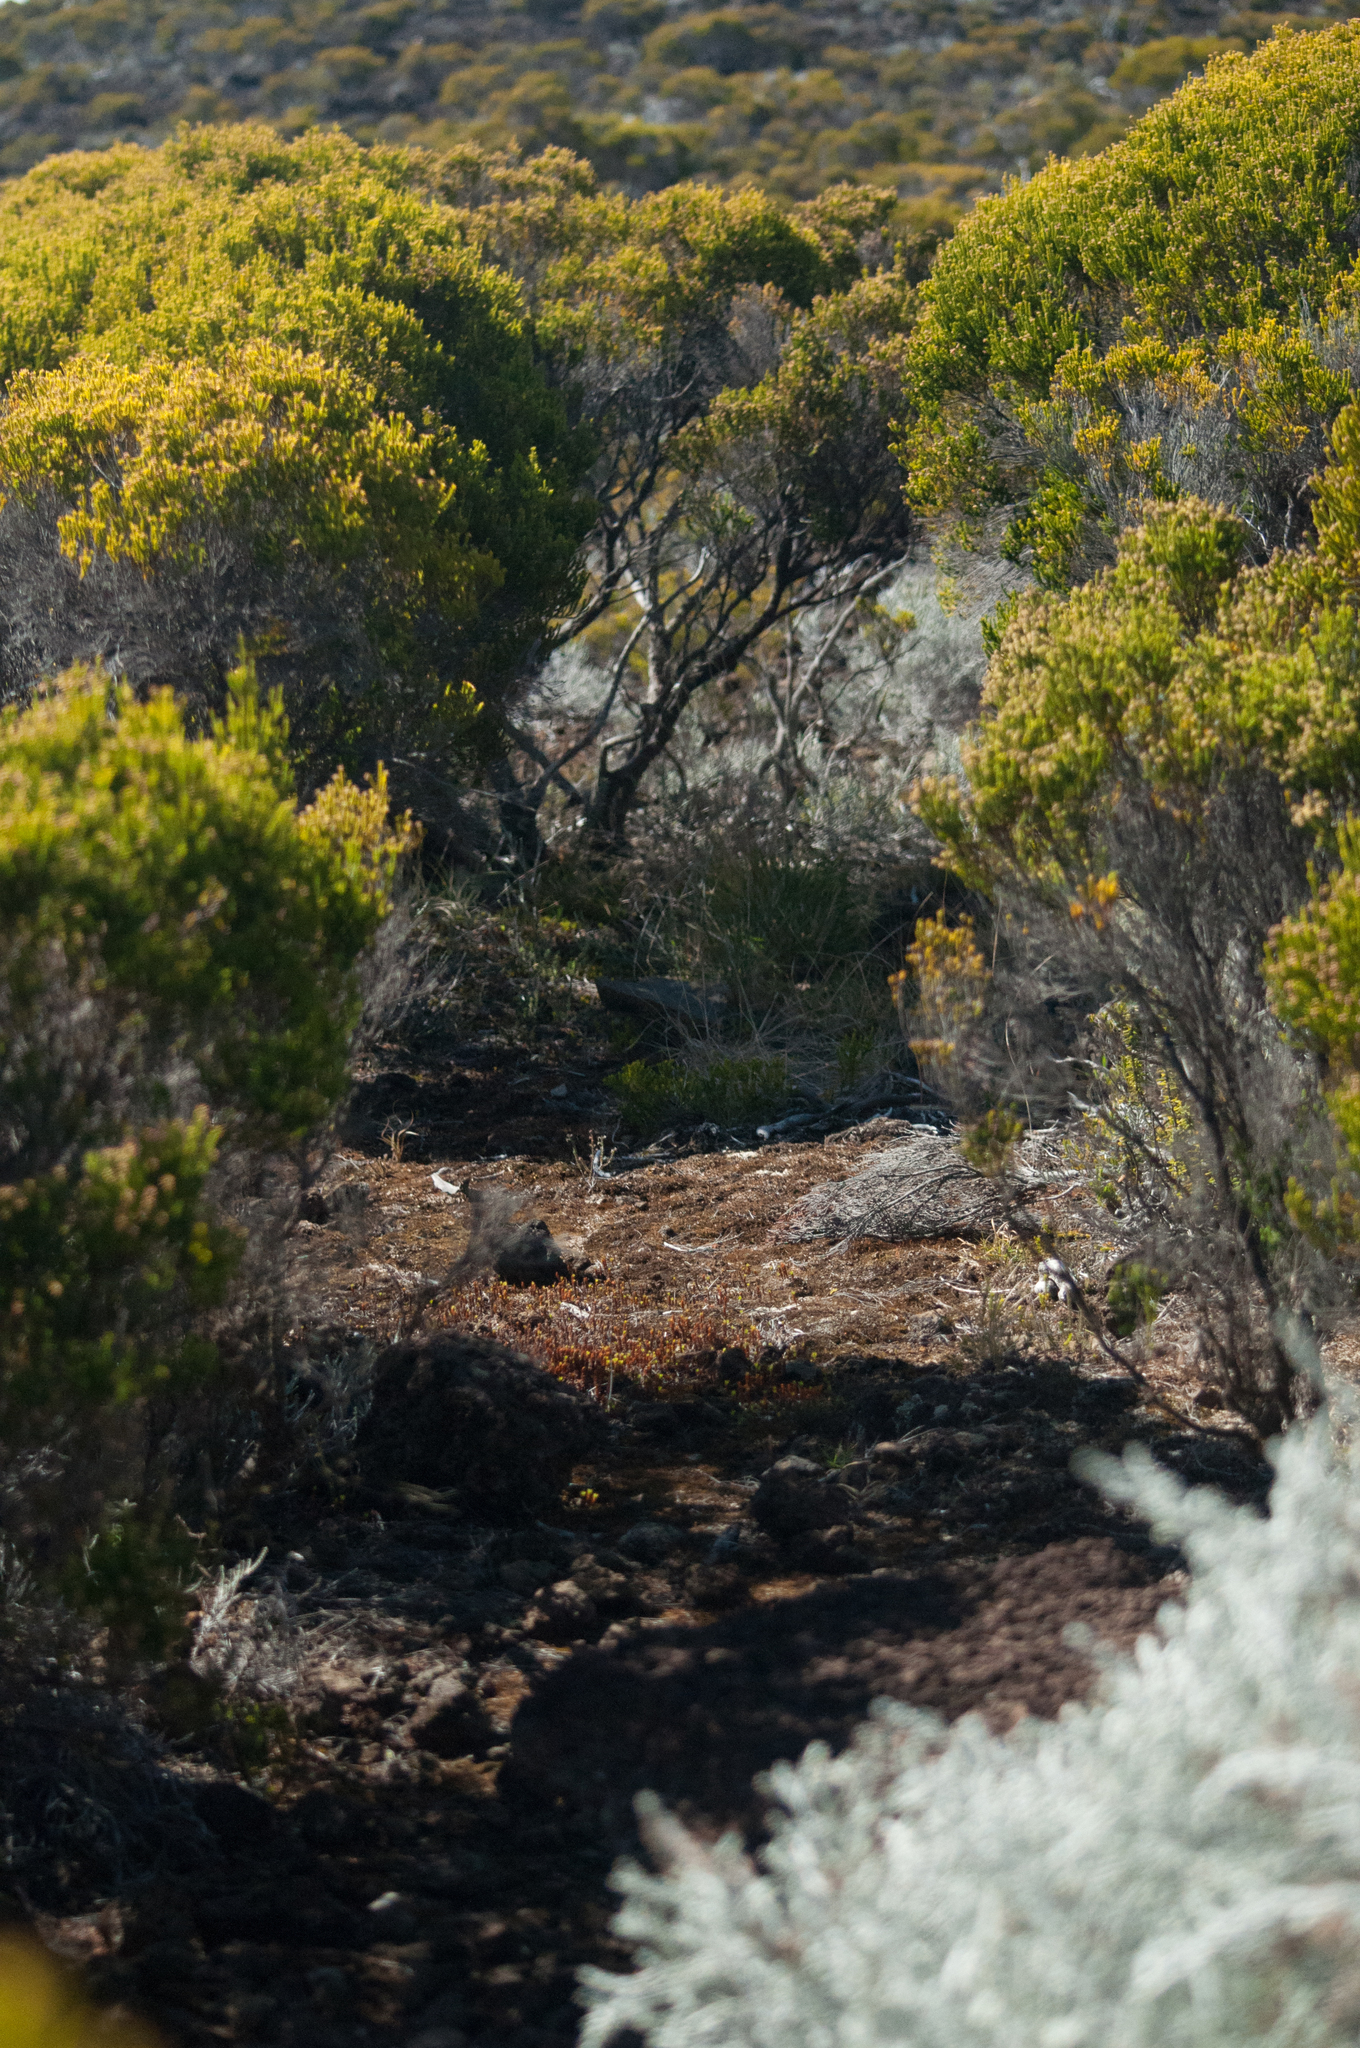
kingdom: Plantae
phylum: Tracheophyta
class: Magnoliopsida
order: Ericales
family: Ericaceae
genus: Erica
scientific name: Erica reunionensis
